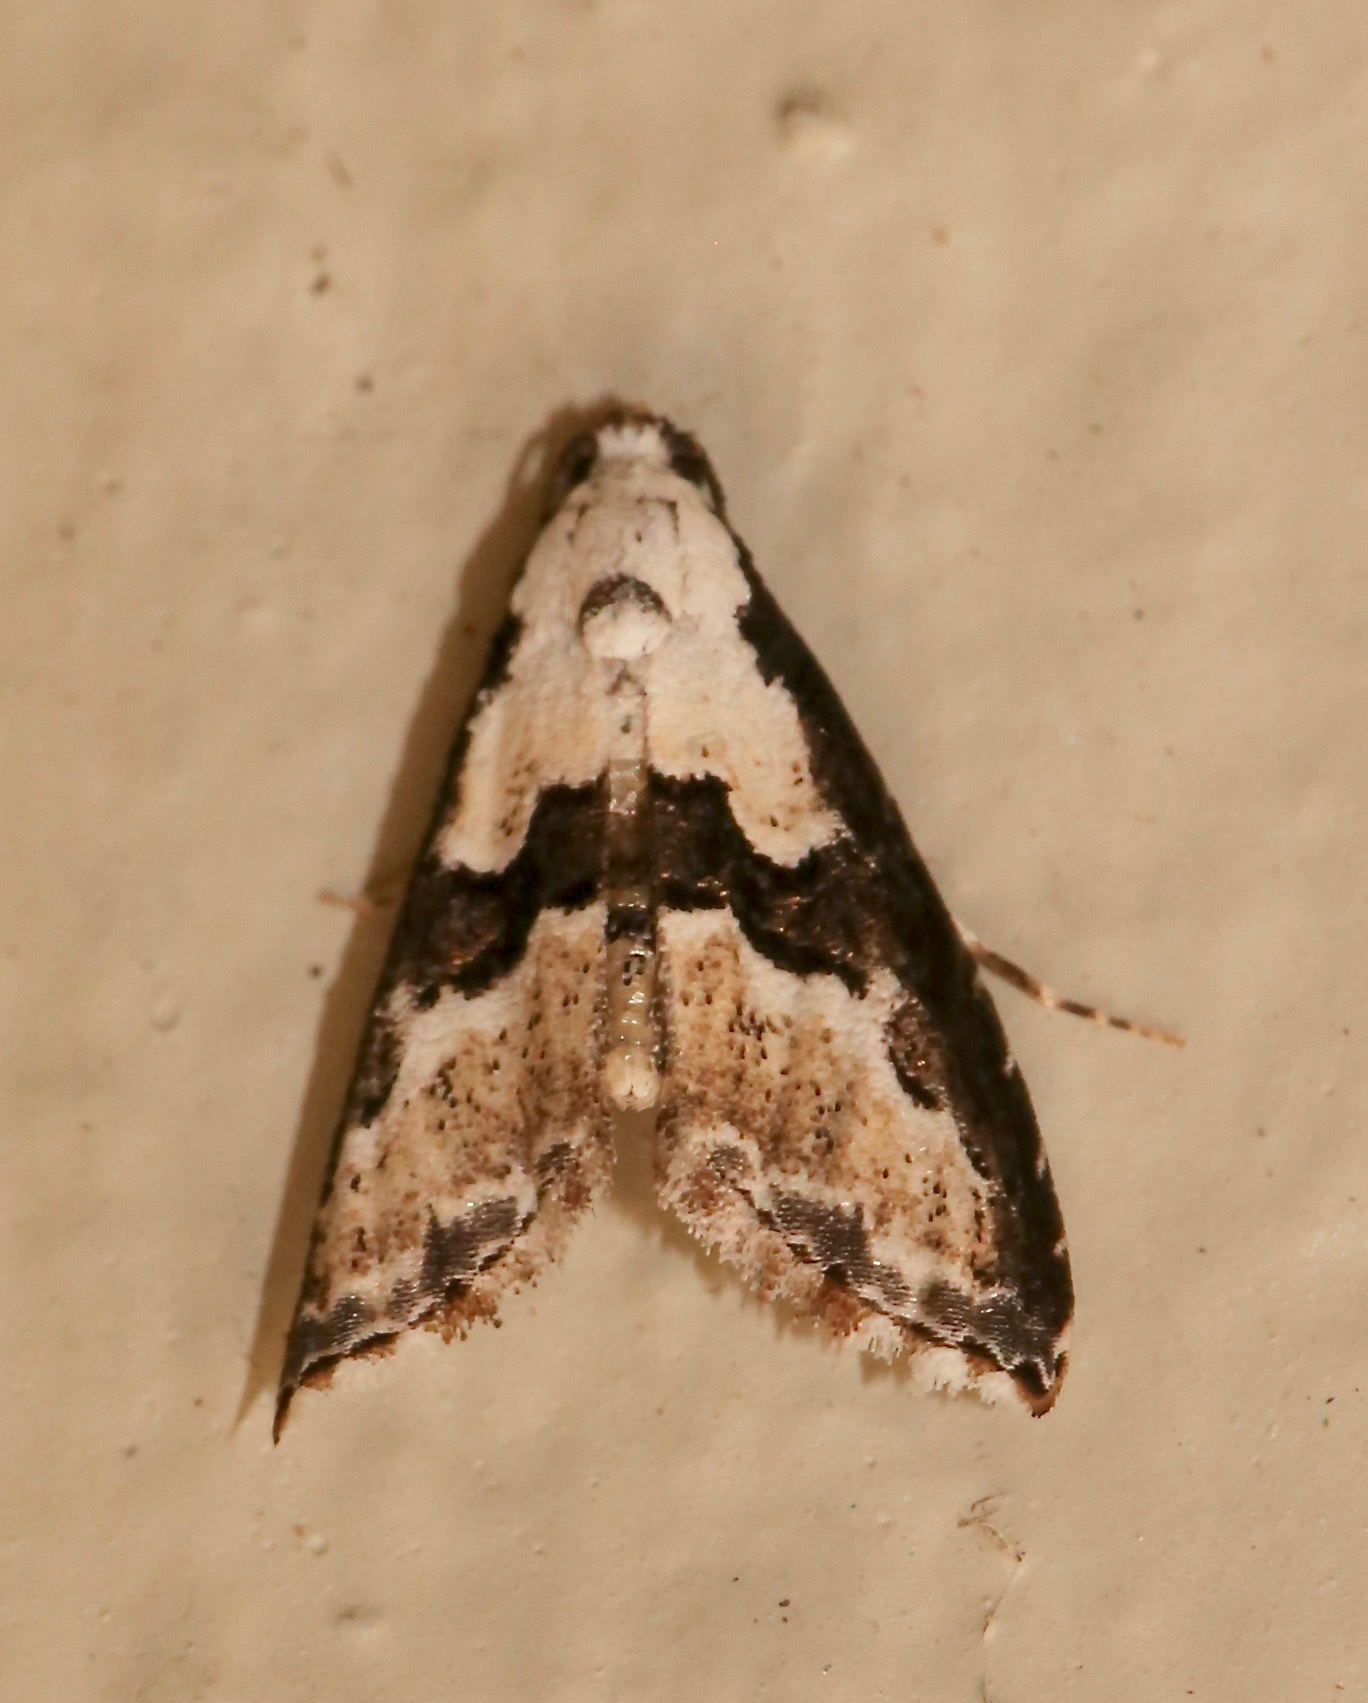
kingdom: Animalia
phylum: Arthropoda
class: Insecta
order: Lepidoptera
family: Noctuidae
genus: Nigetia
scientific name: Nigetia formosalis
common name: Thin-winged owlet
